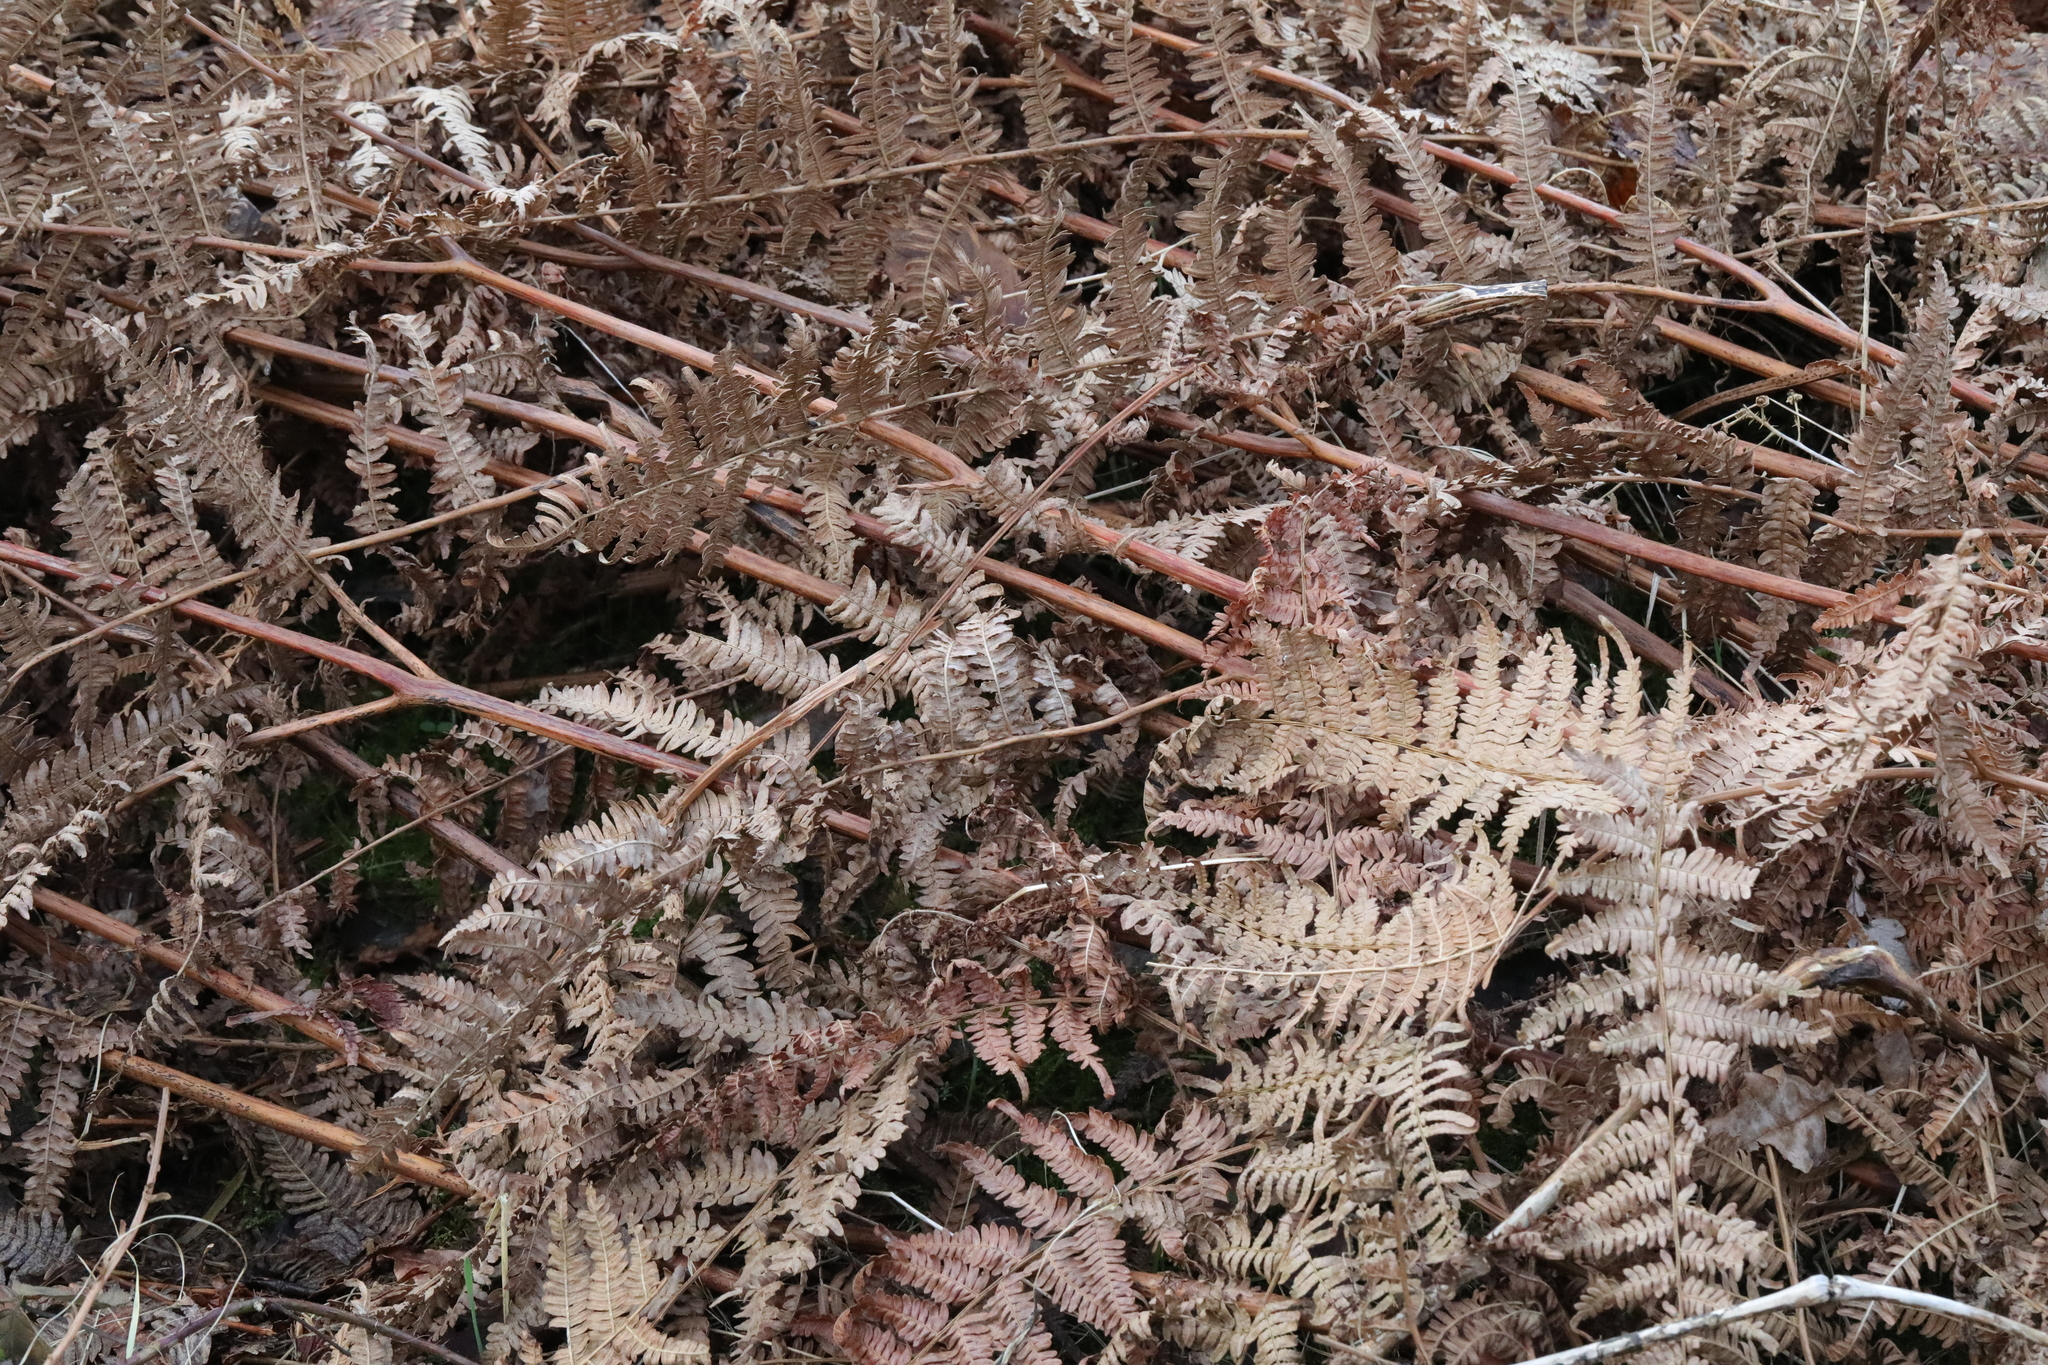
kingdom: Plantae
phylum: Tracheophyta
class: Polypodiopsida
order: Polypodiales
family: Dennstaedtiaceae
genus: Pteridium
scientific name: Pteridium aquilinum
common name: Bracken
